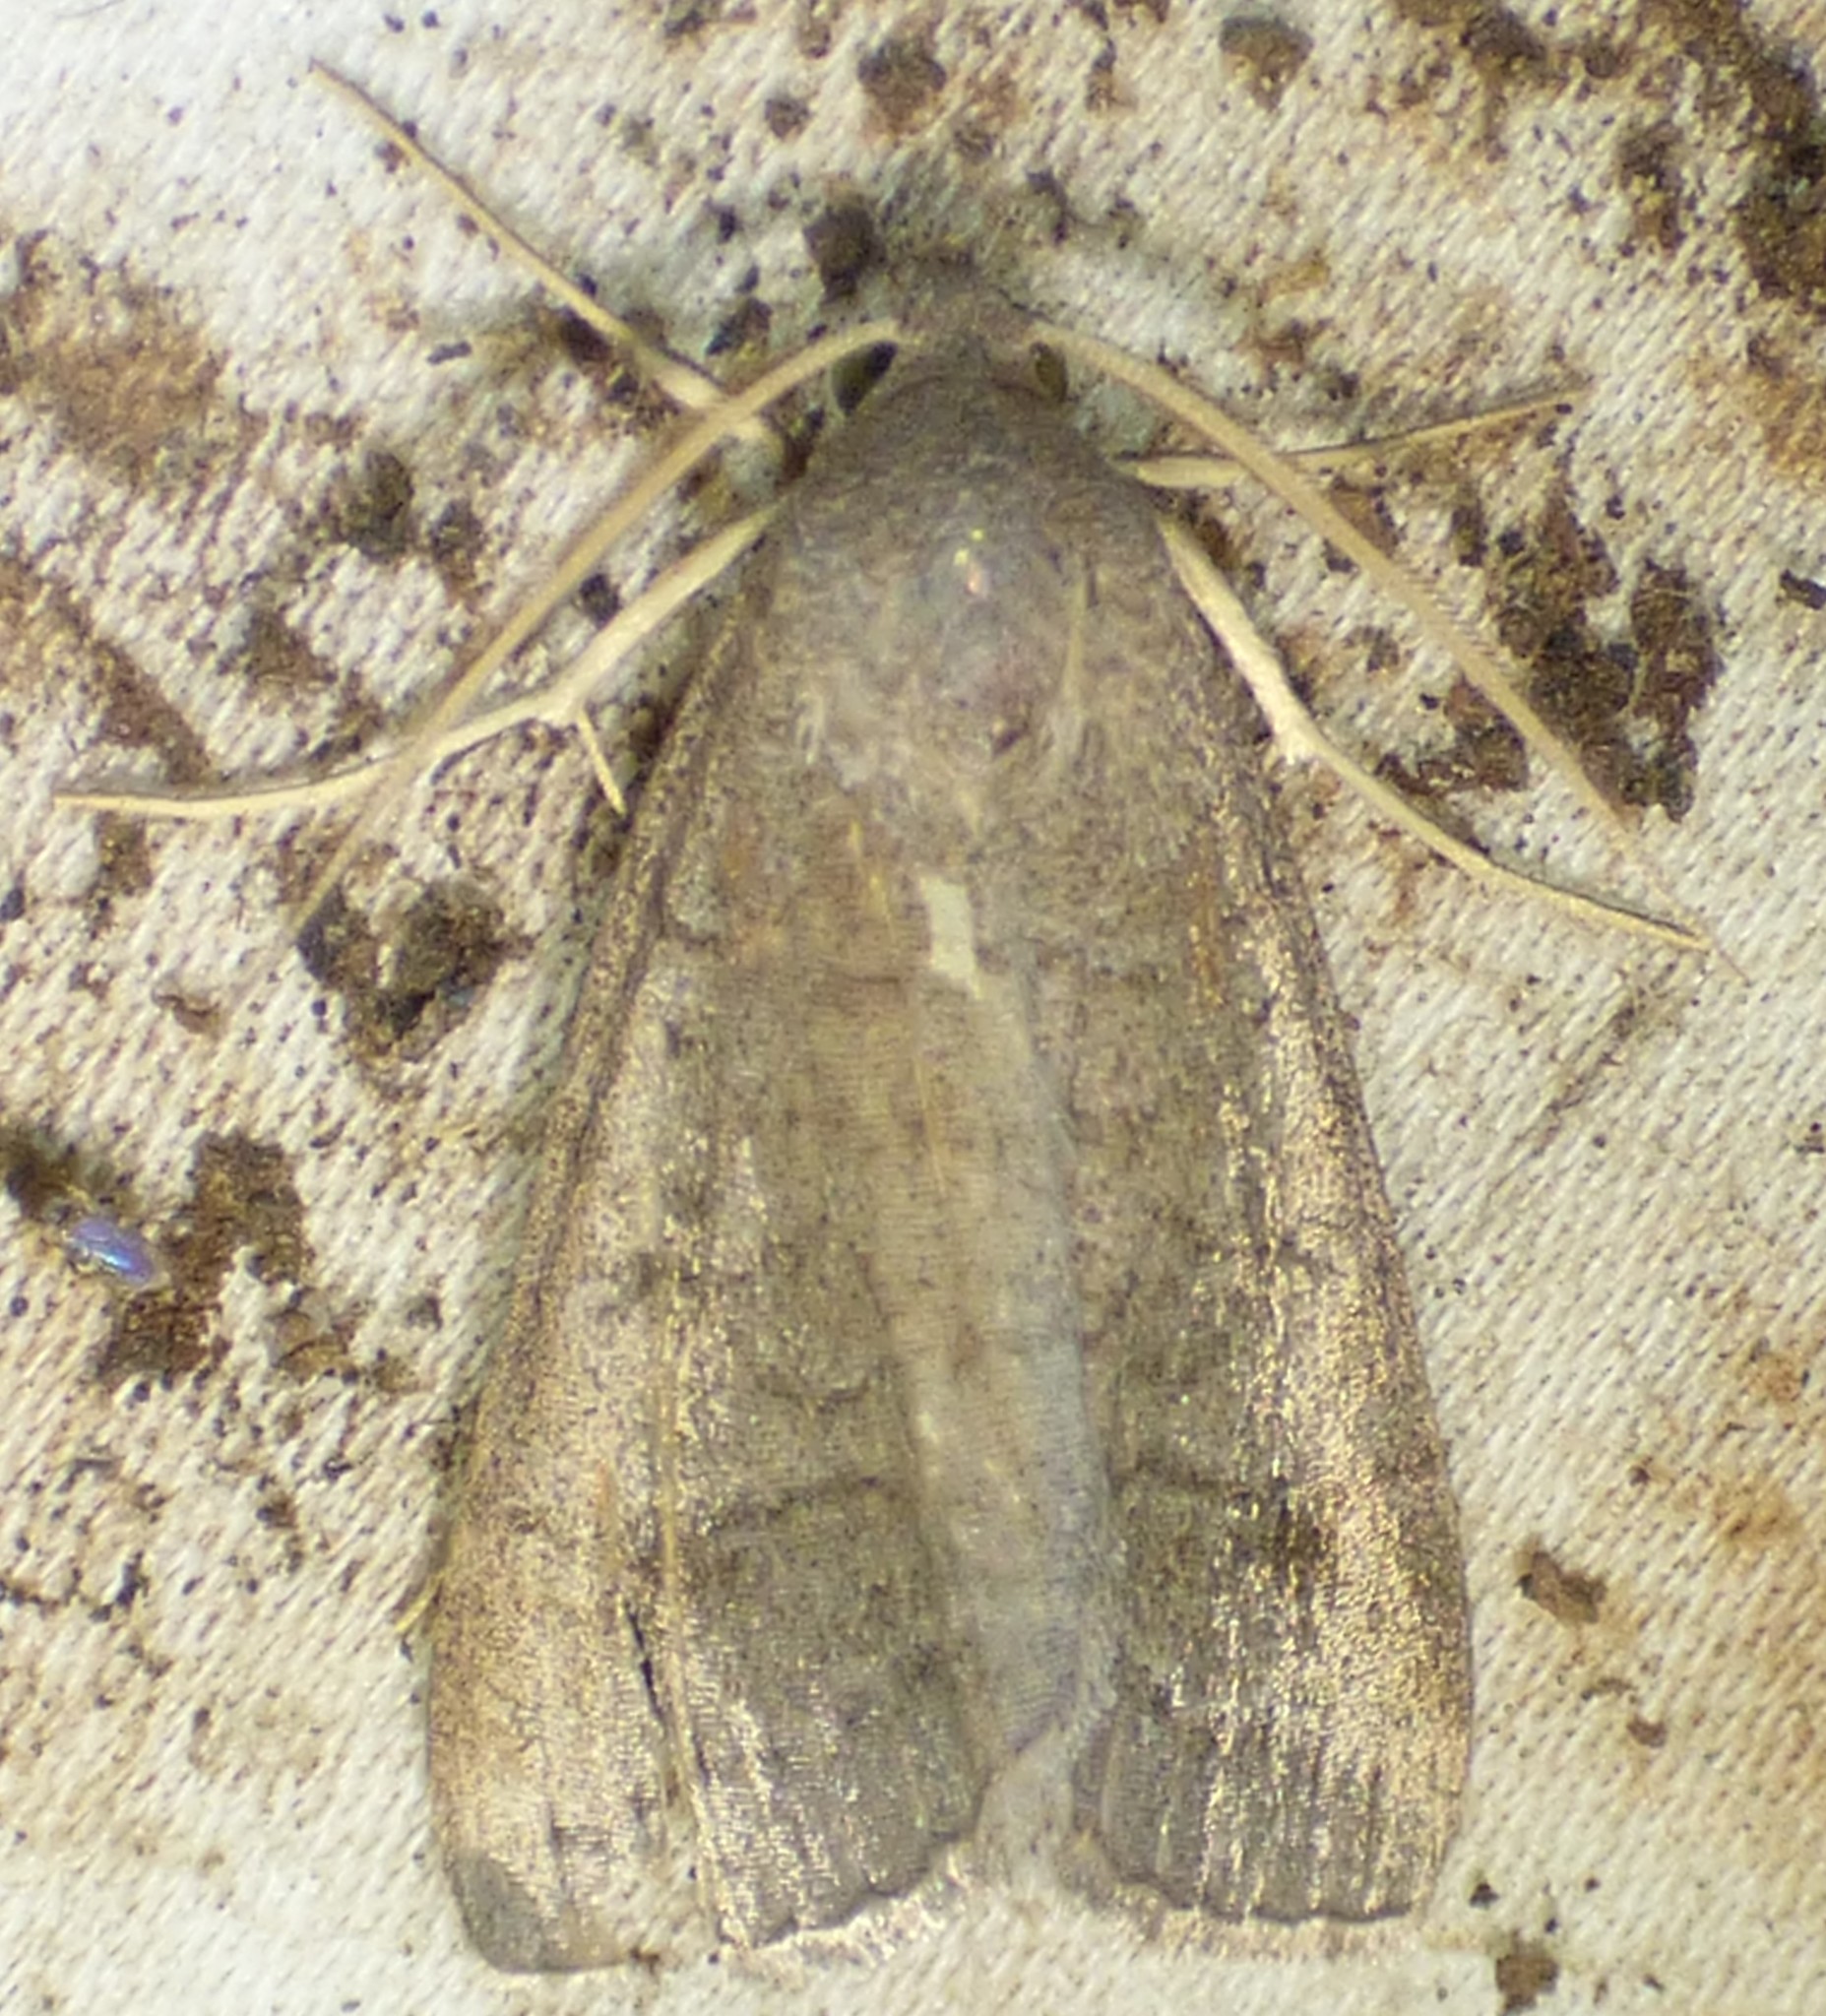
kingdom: Animalia
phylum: Arthropoda
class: Insecta
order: Lepidoptera
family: Erebidae
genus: Caenurgia
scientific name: Caenurgia chloropha
